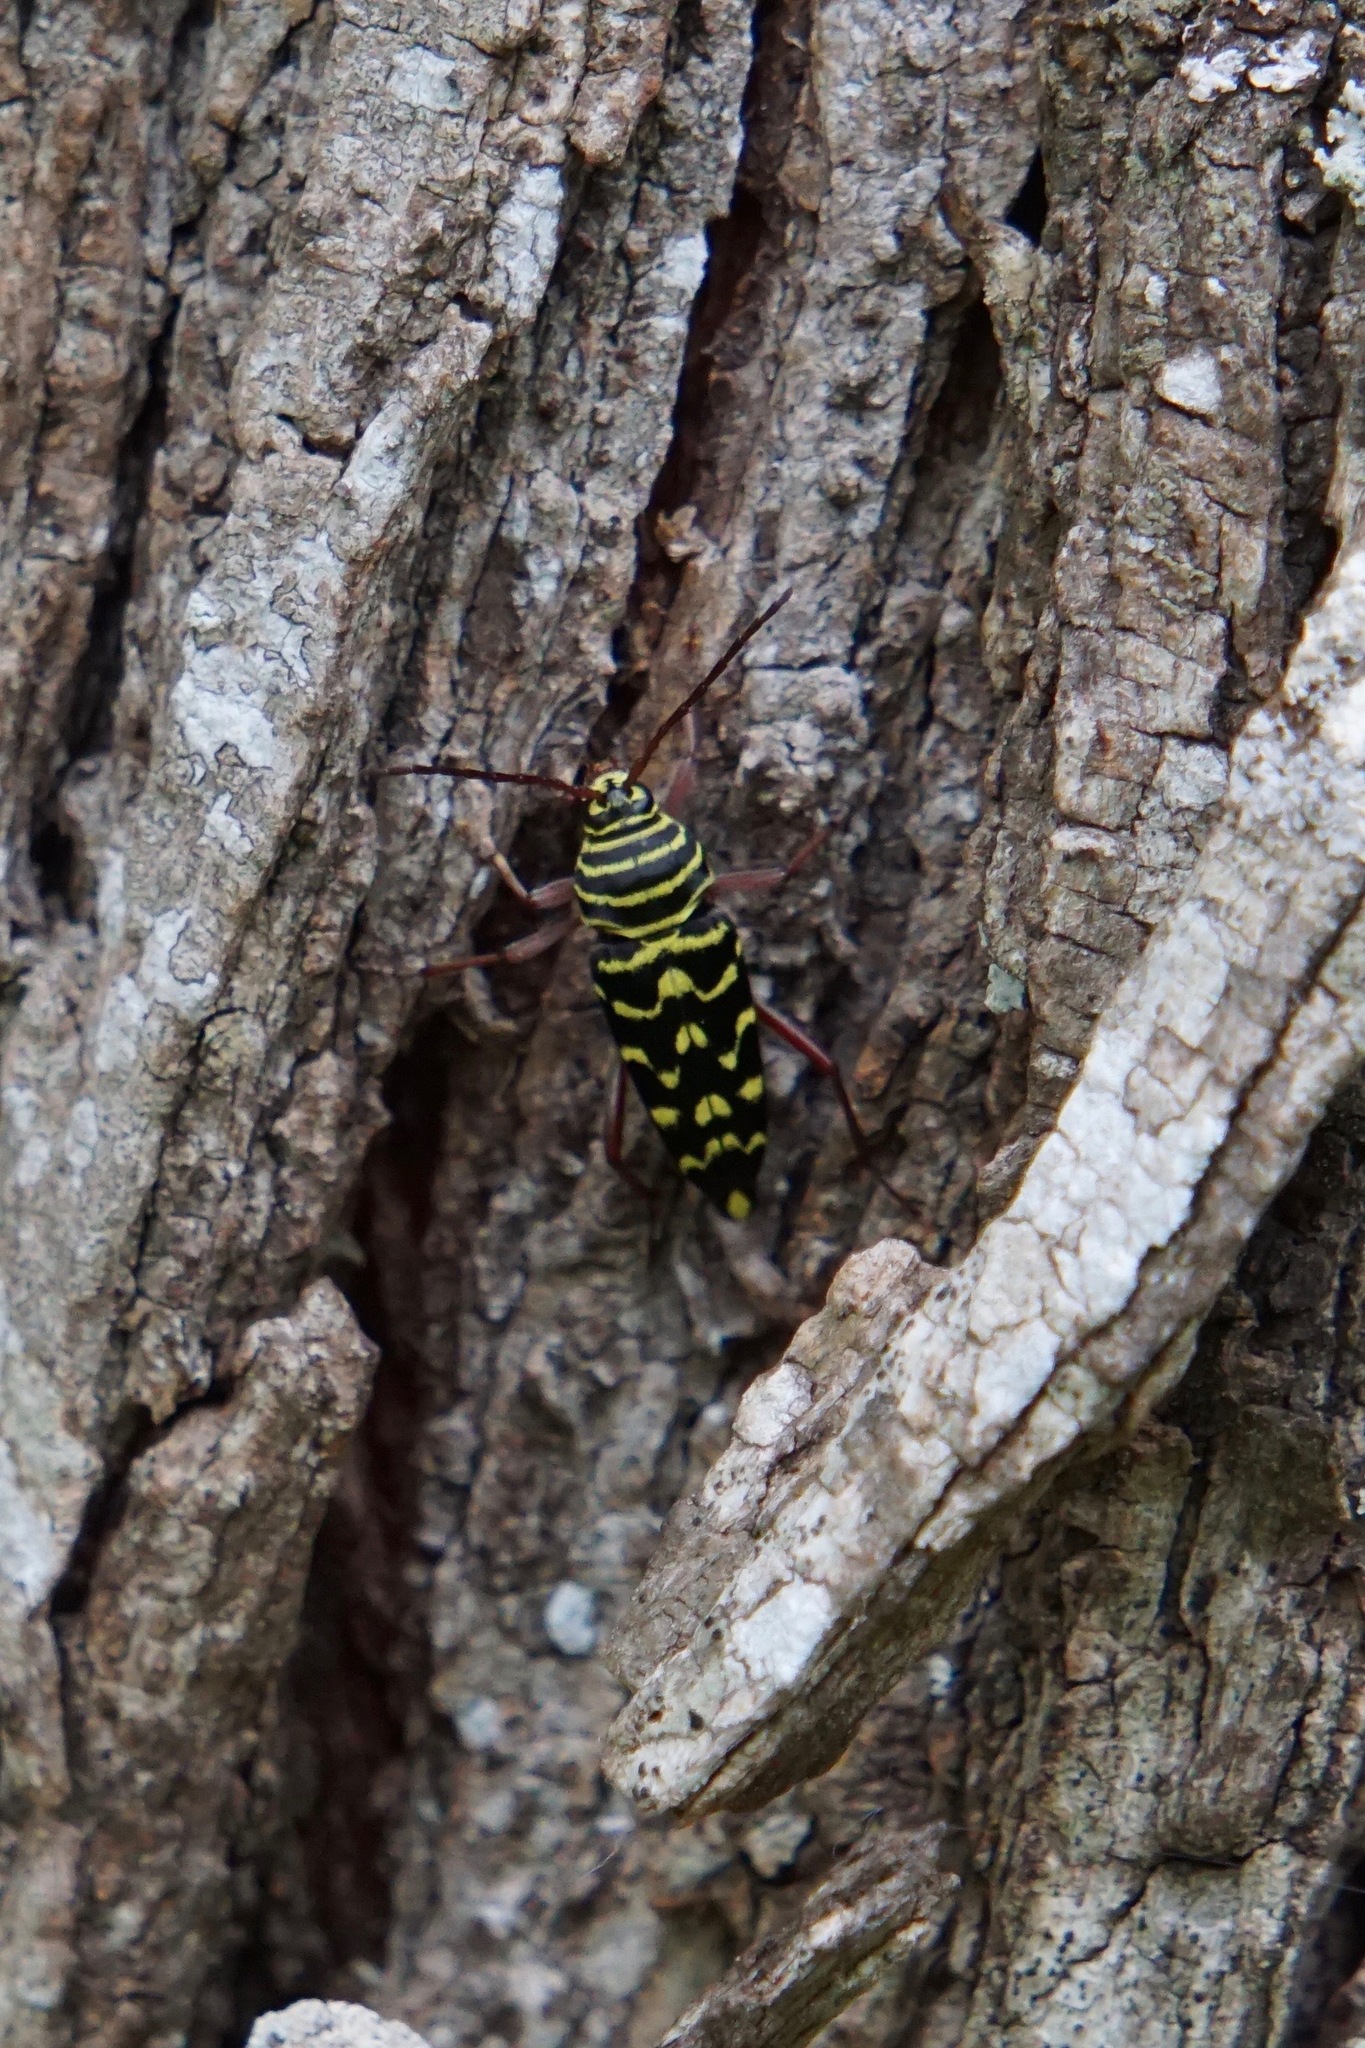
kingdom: Animalia
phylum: Arthropoda
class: Insecta
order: Coleoptera
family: Cerambycidae
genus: Placosternus
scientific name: Placosternus difficilis
